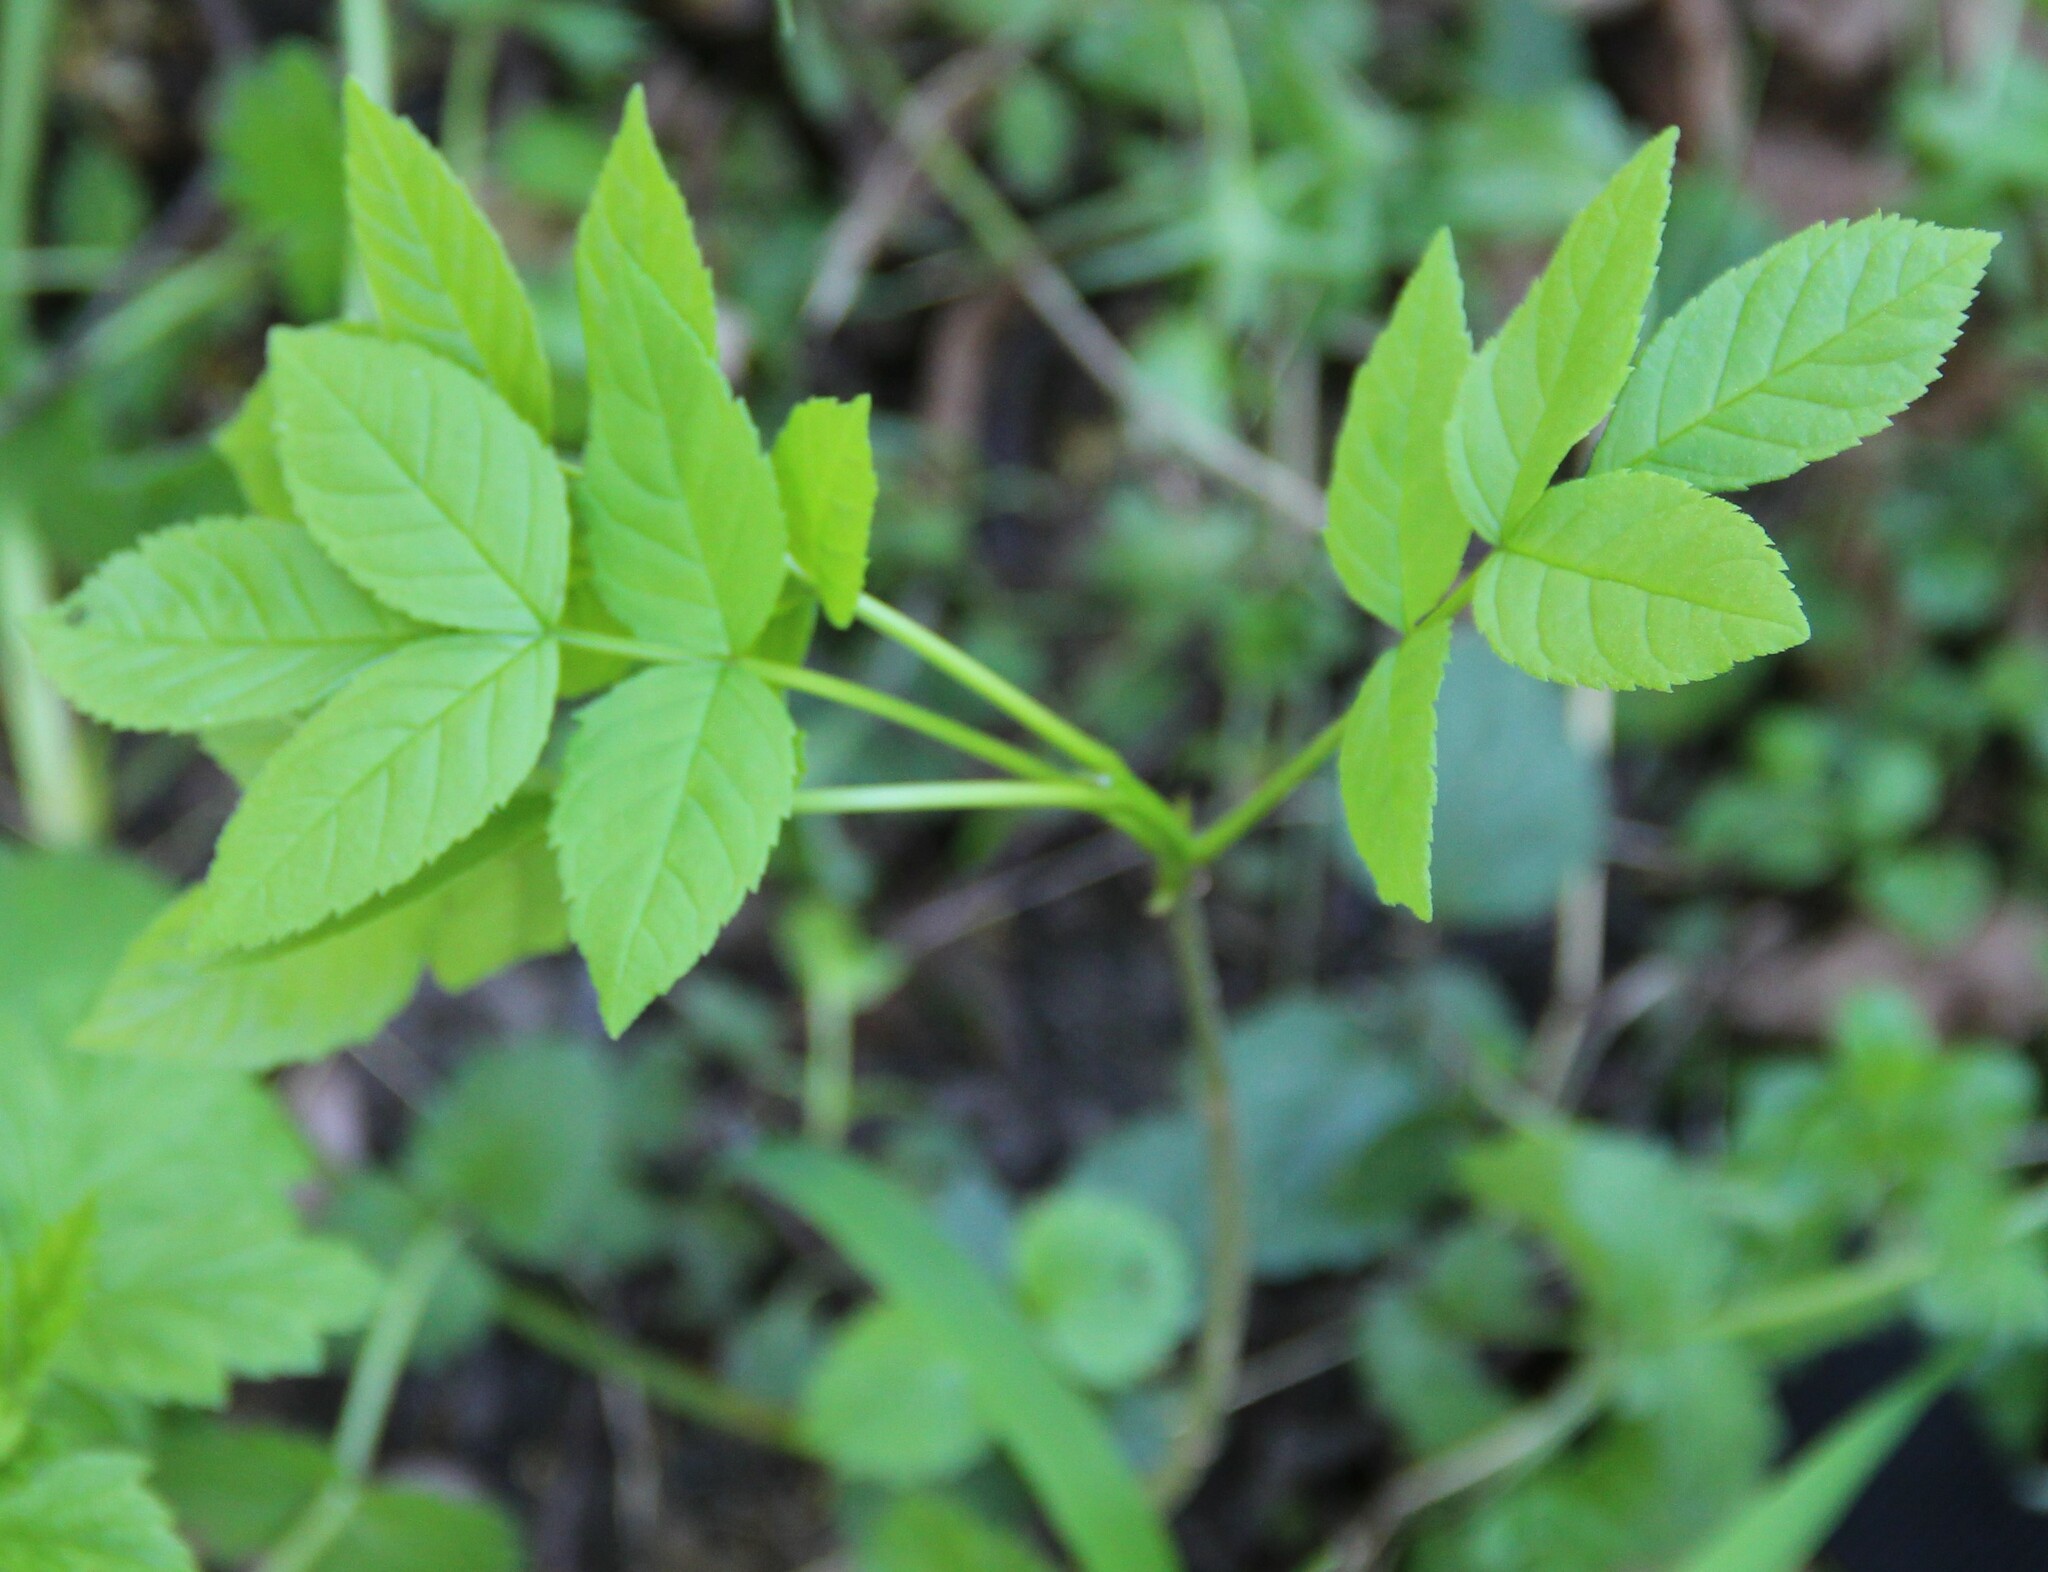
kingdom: Plantae
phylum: Tracheophyta
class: Magnoliopsida
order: Lamiales
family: Oleaceae
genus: Fraxinus
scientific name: Fraxinus pennsylvanica
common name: Green ash
